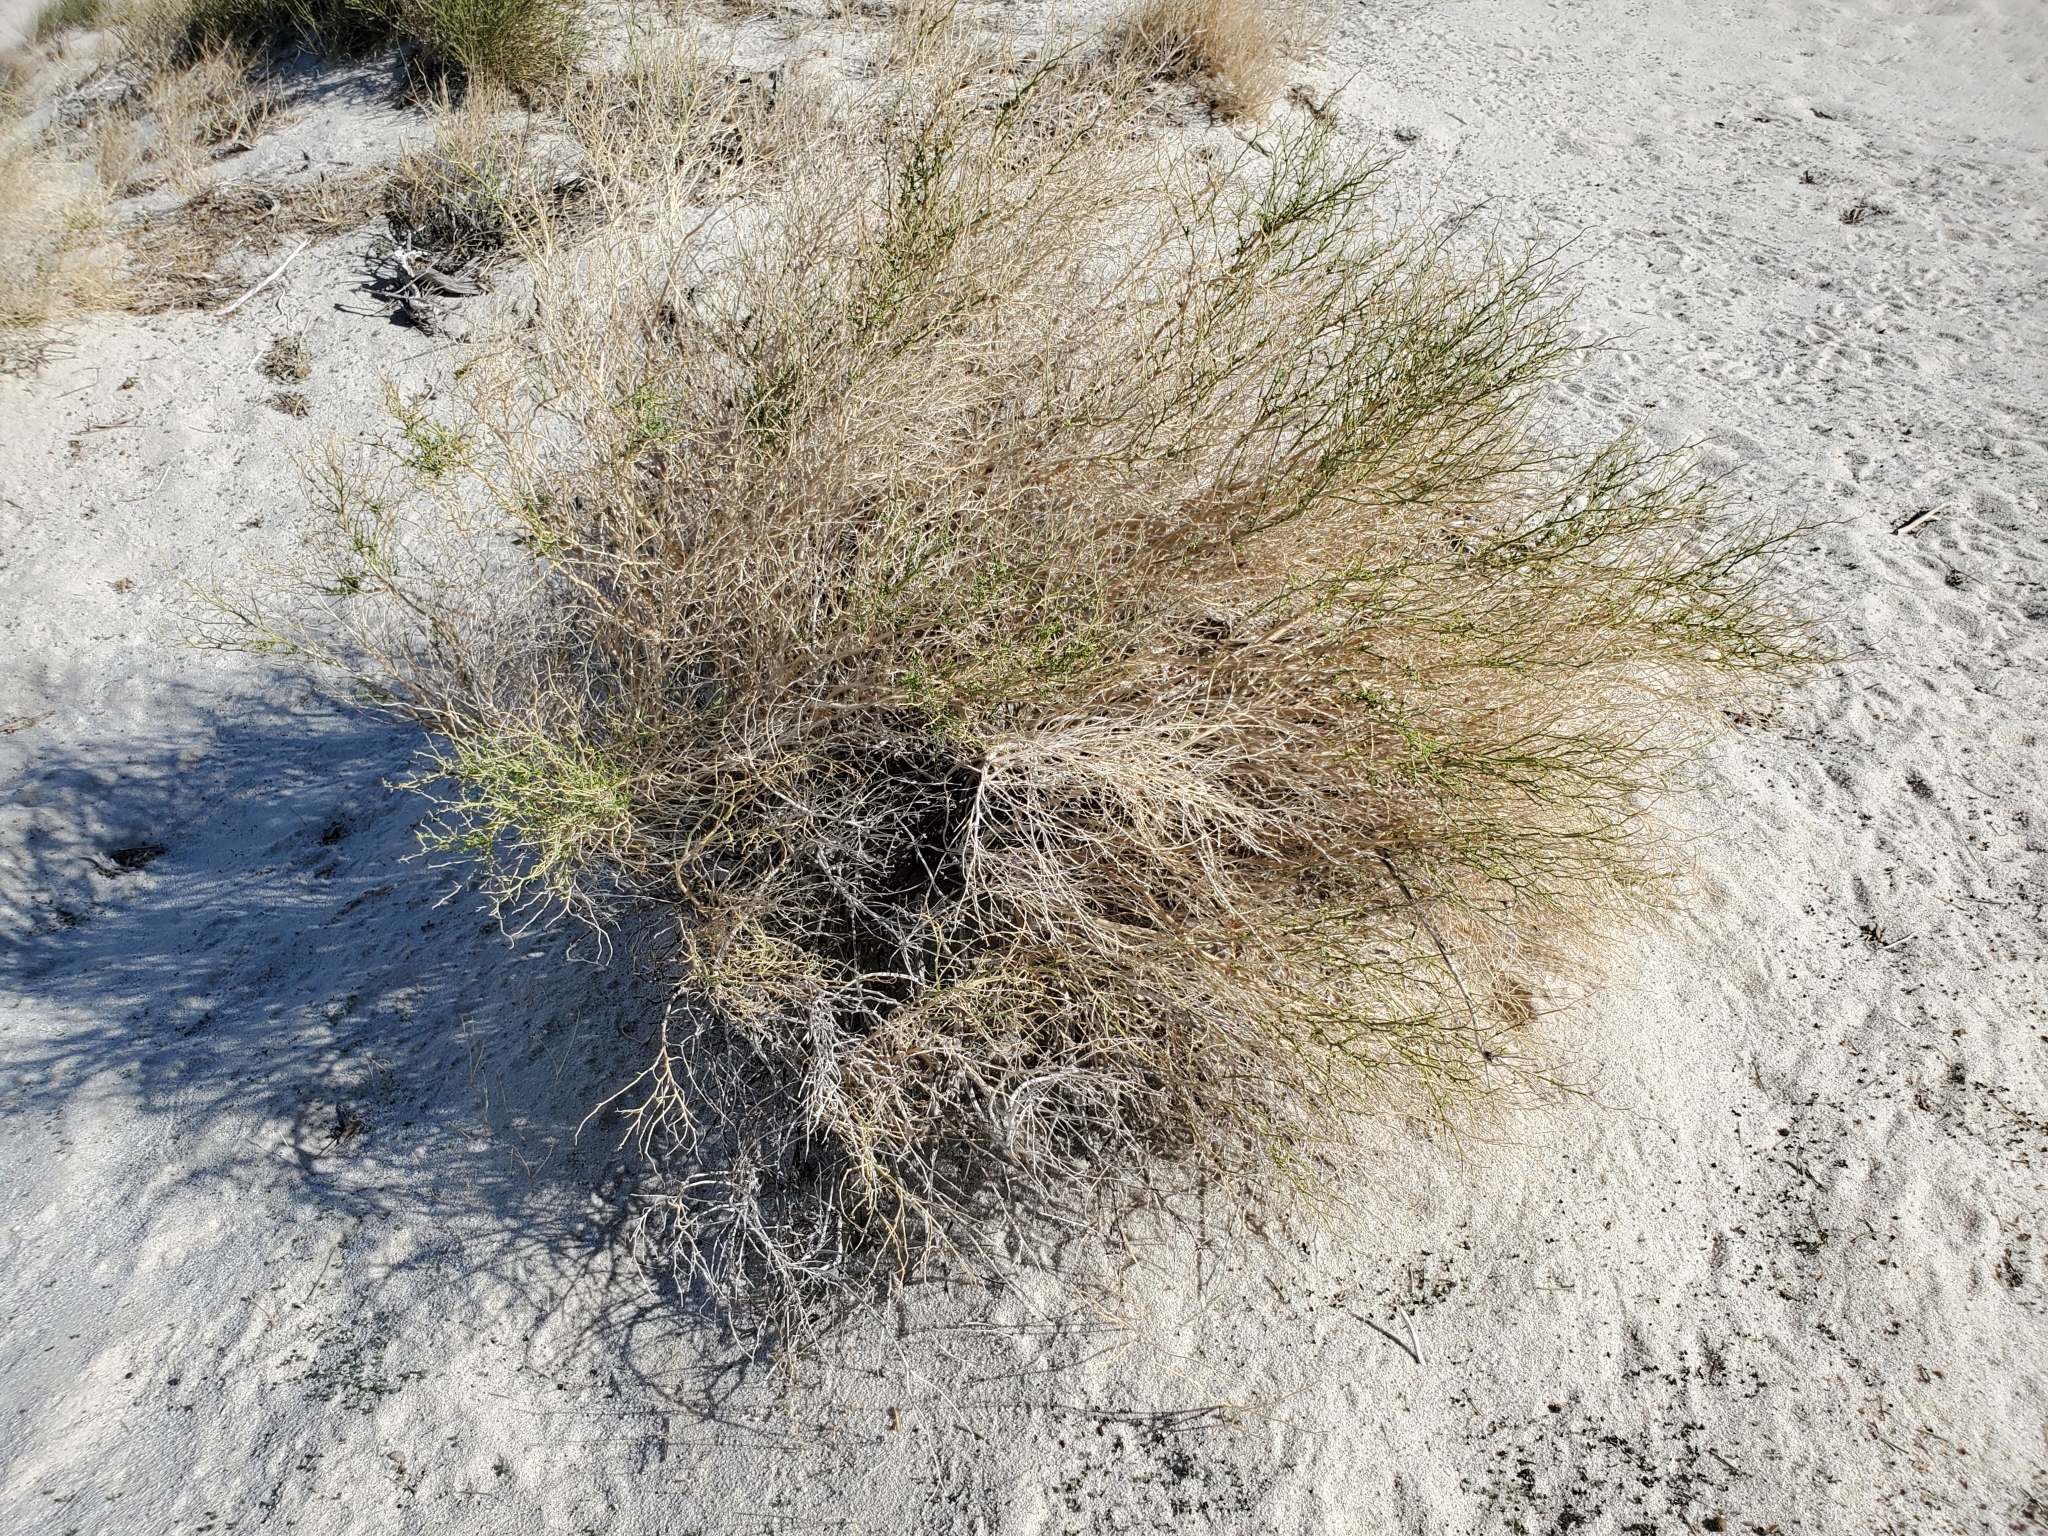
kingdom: Plantae
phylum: Tracheophyta
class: Magnoliopsida
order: Asterales
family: Asteraceae
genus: Ambrosia
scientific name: Ambrosia salsola
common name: Burrobrush
